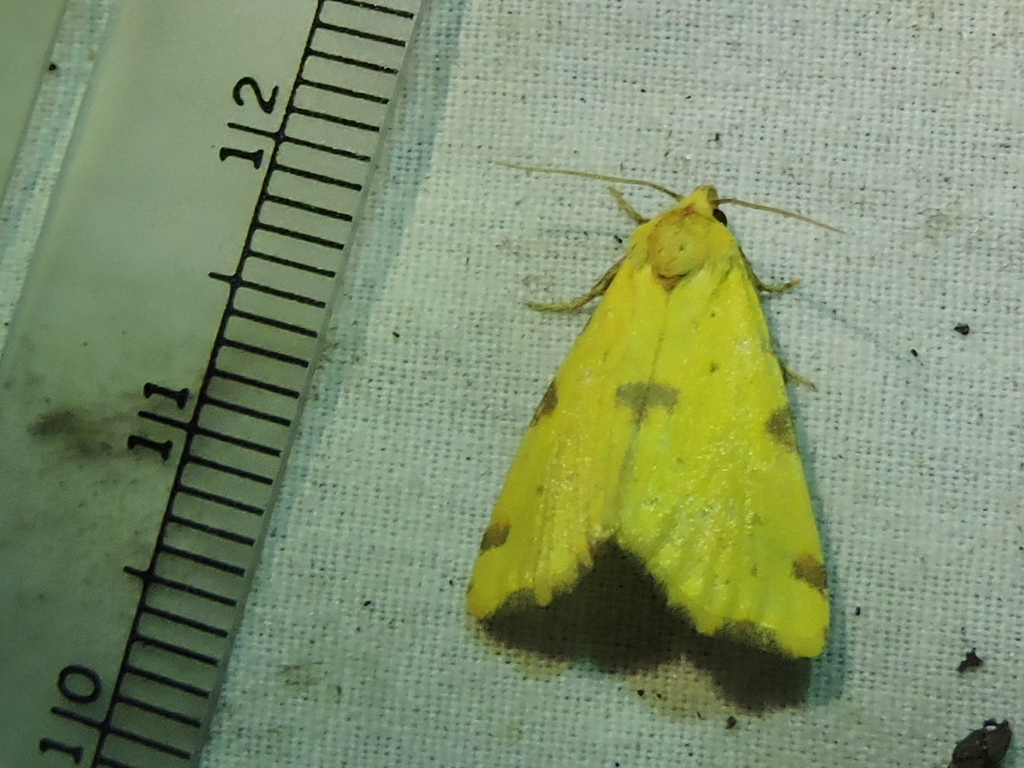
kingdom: Animalia
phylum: Arthropoda
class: Insecta
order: Lepidoptera
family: Noctuidae
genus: Azenia
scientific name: Azenia perflava
